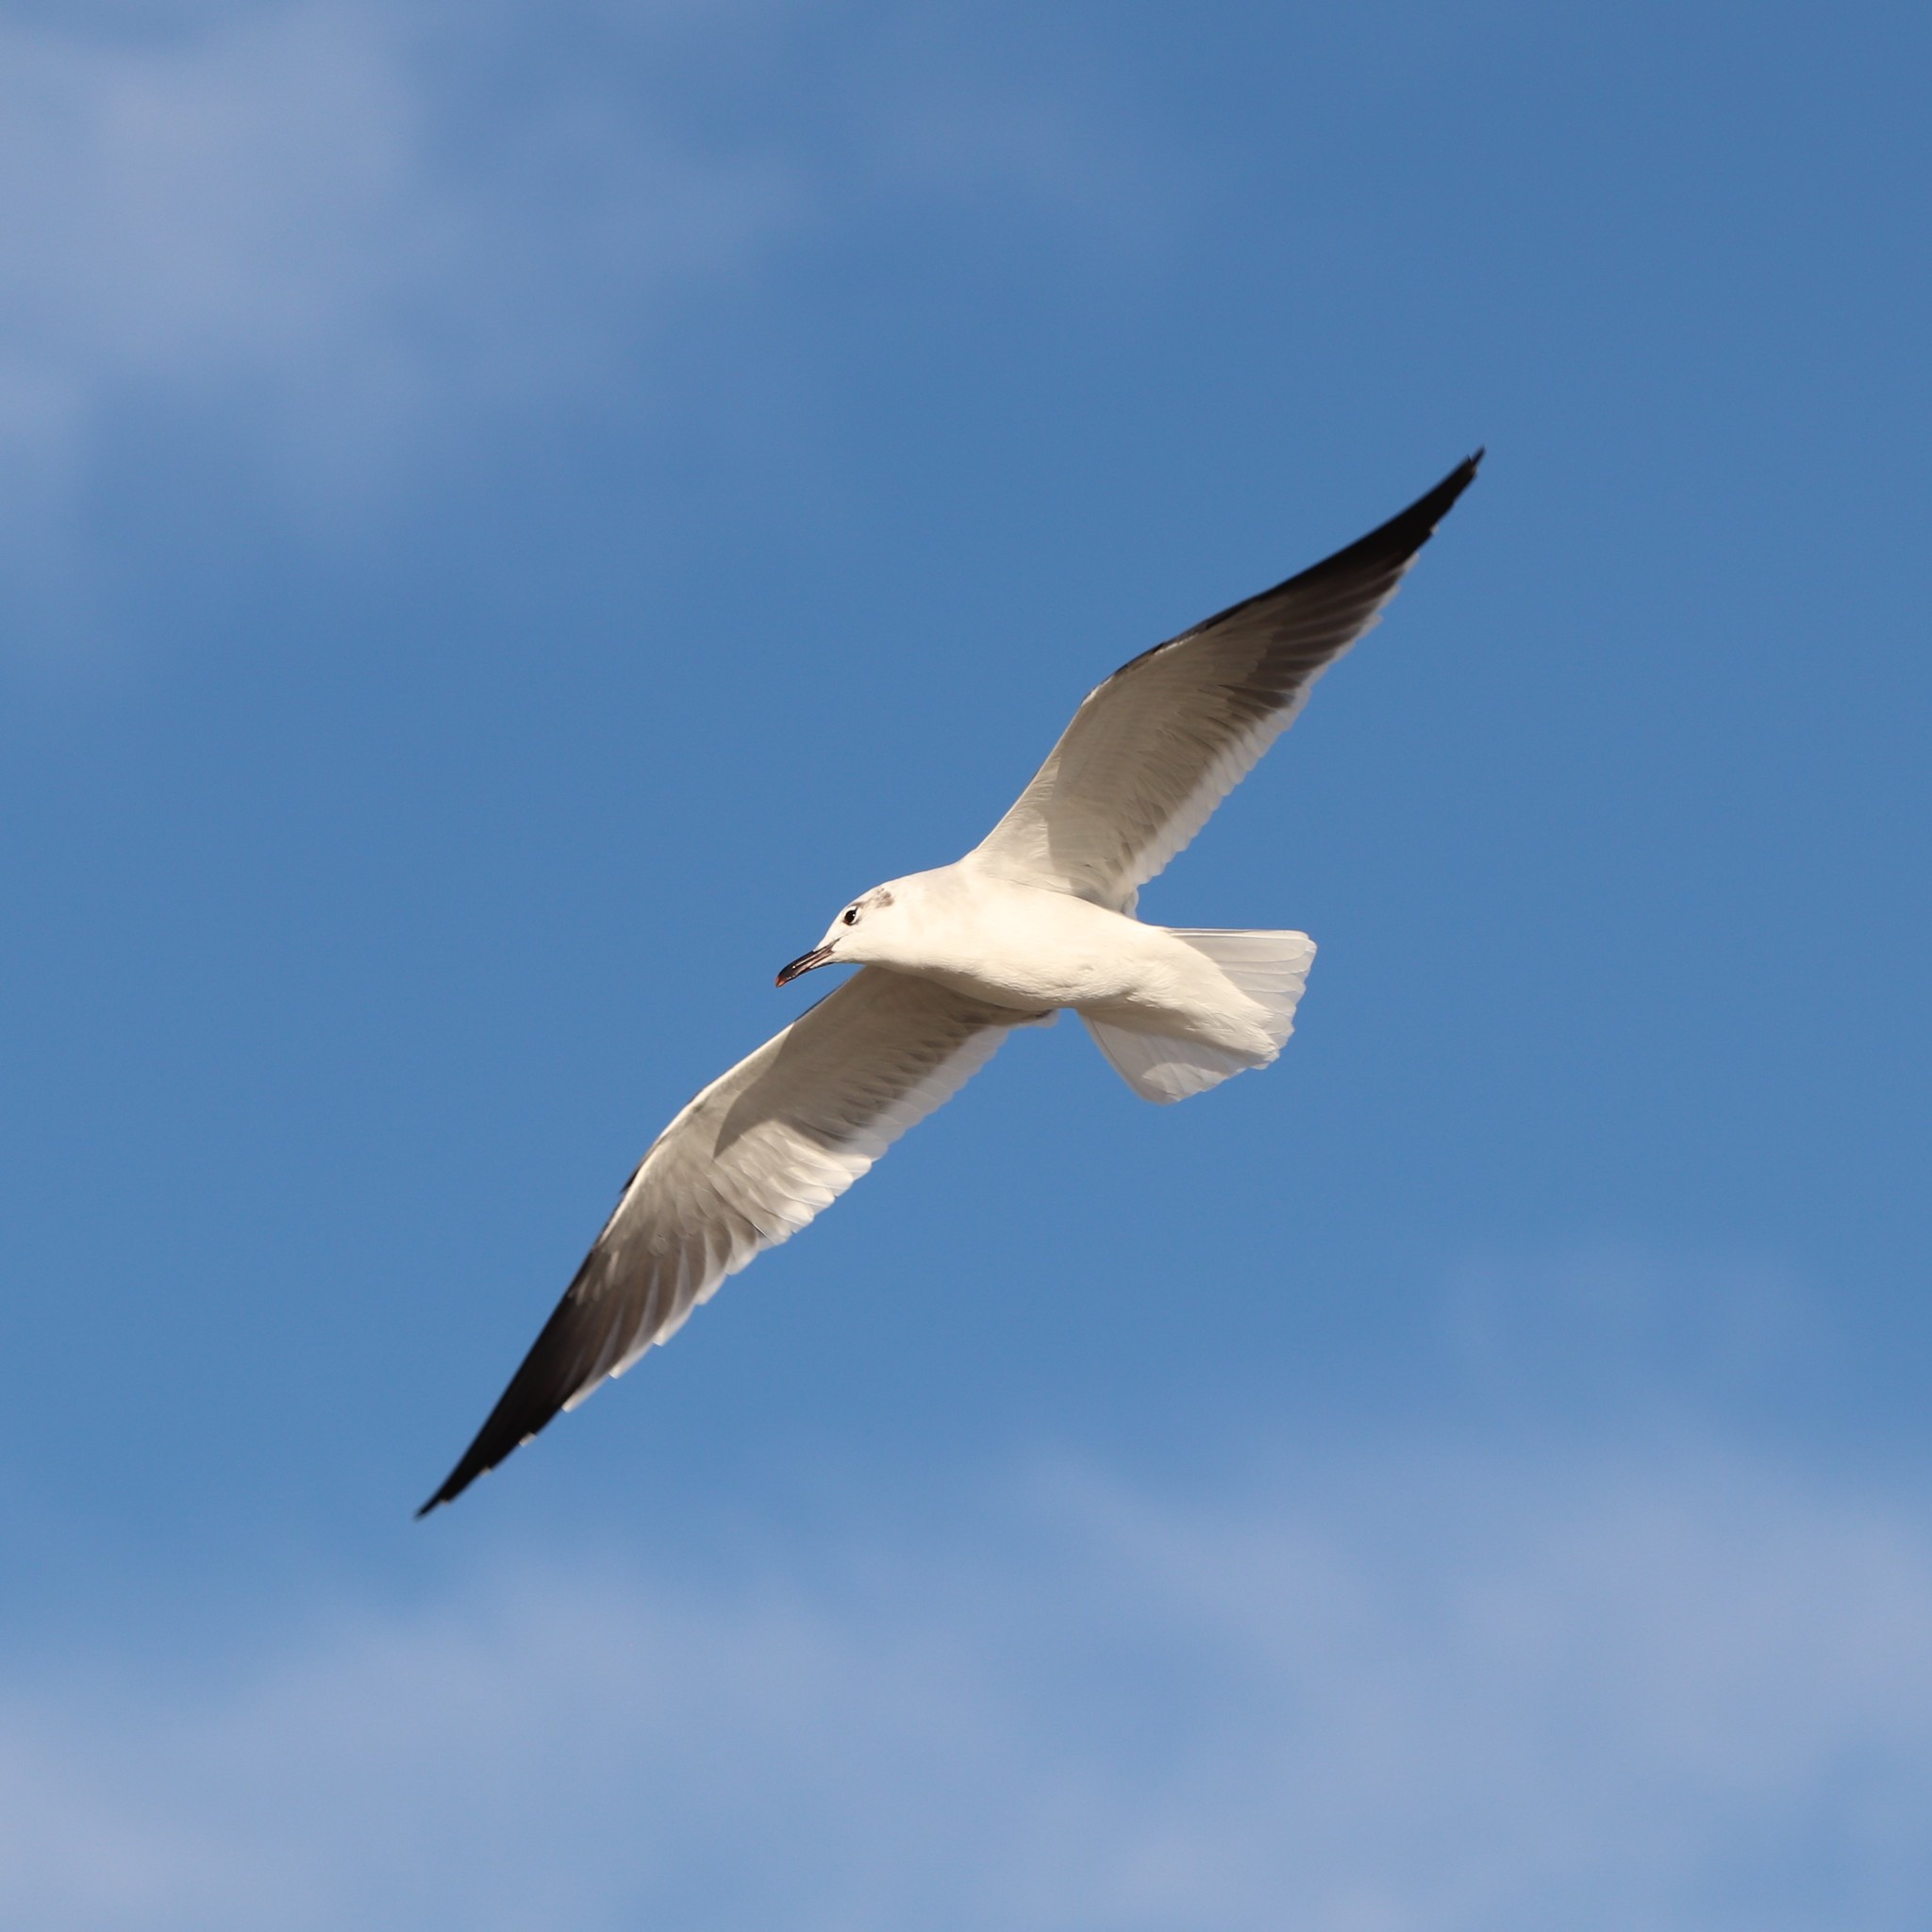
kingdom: Animalia
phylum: Chordata
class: Aves
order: Charadriiformes
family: Laridae
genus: Leucophaeus
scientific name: Leucophaeus atricilla
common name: Laughing gull
